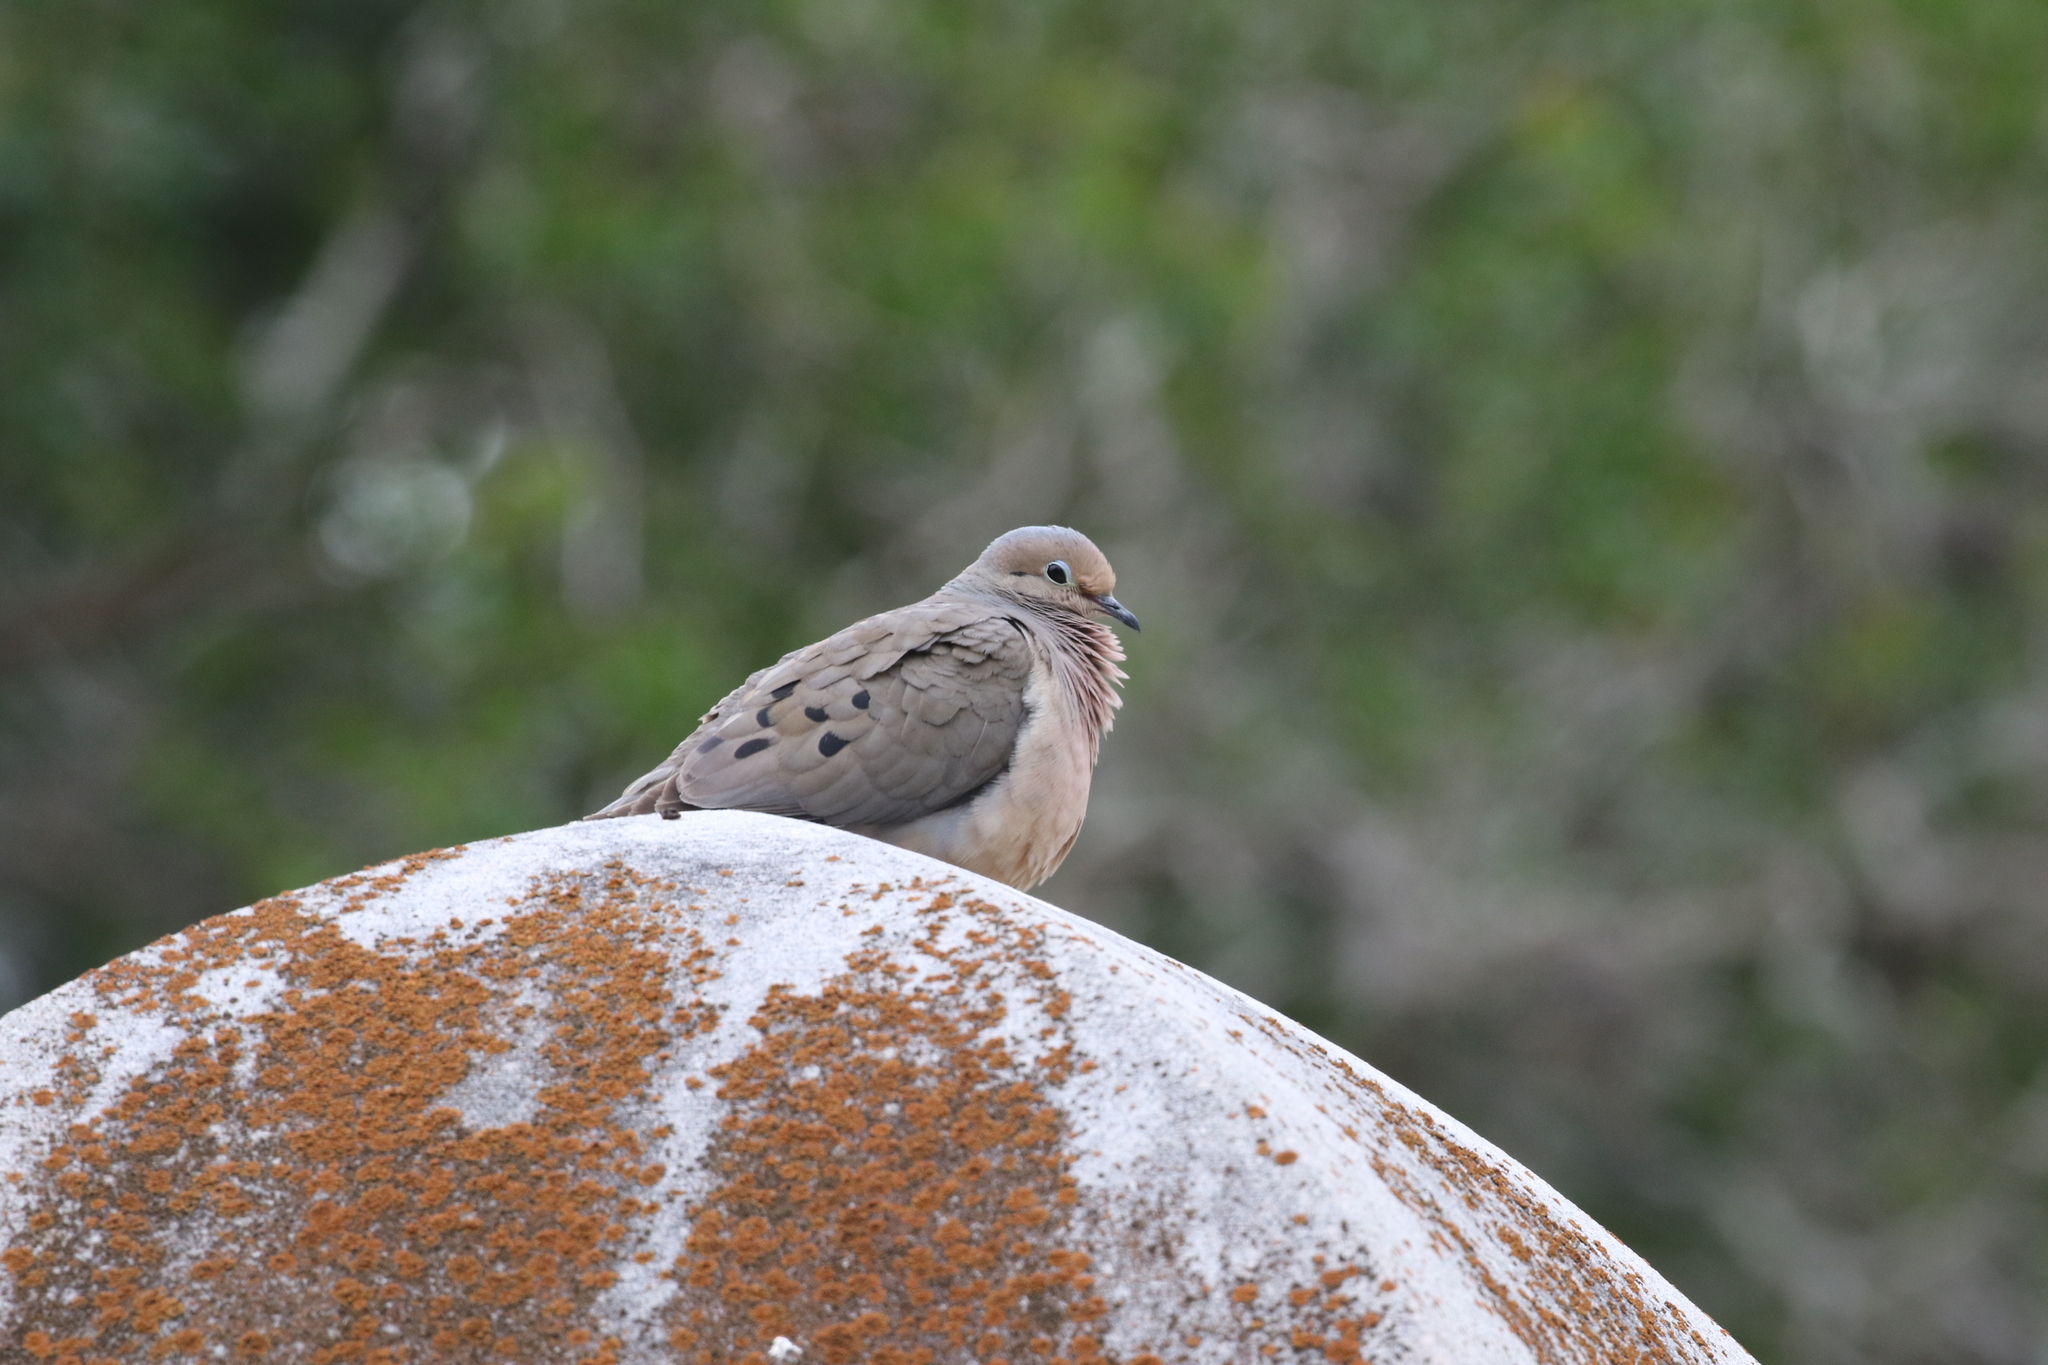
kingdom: Animalia
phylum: Chordata
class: Aves
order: Columbiformes
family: Columbidae
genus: Zenaida
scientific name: Zenaida macroura
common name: Mourning dove
